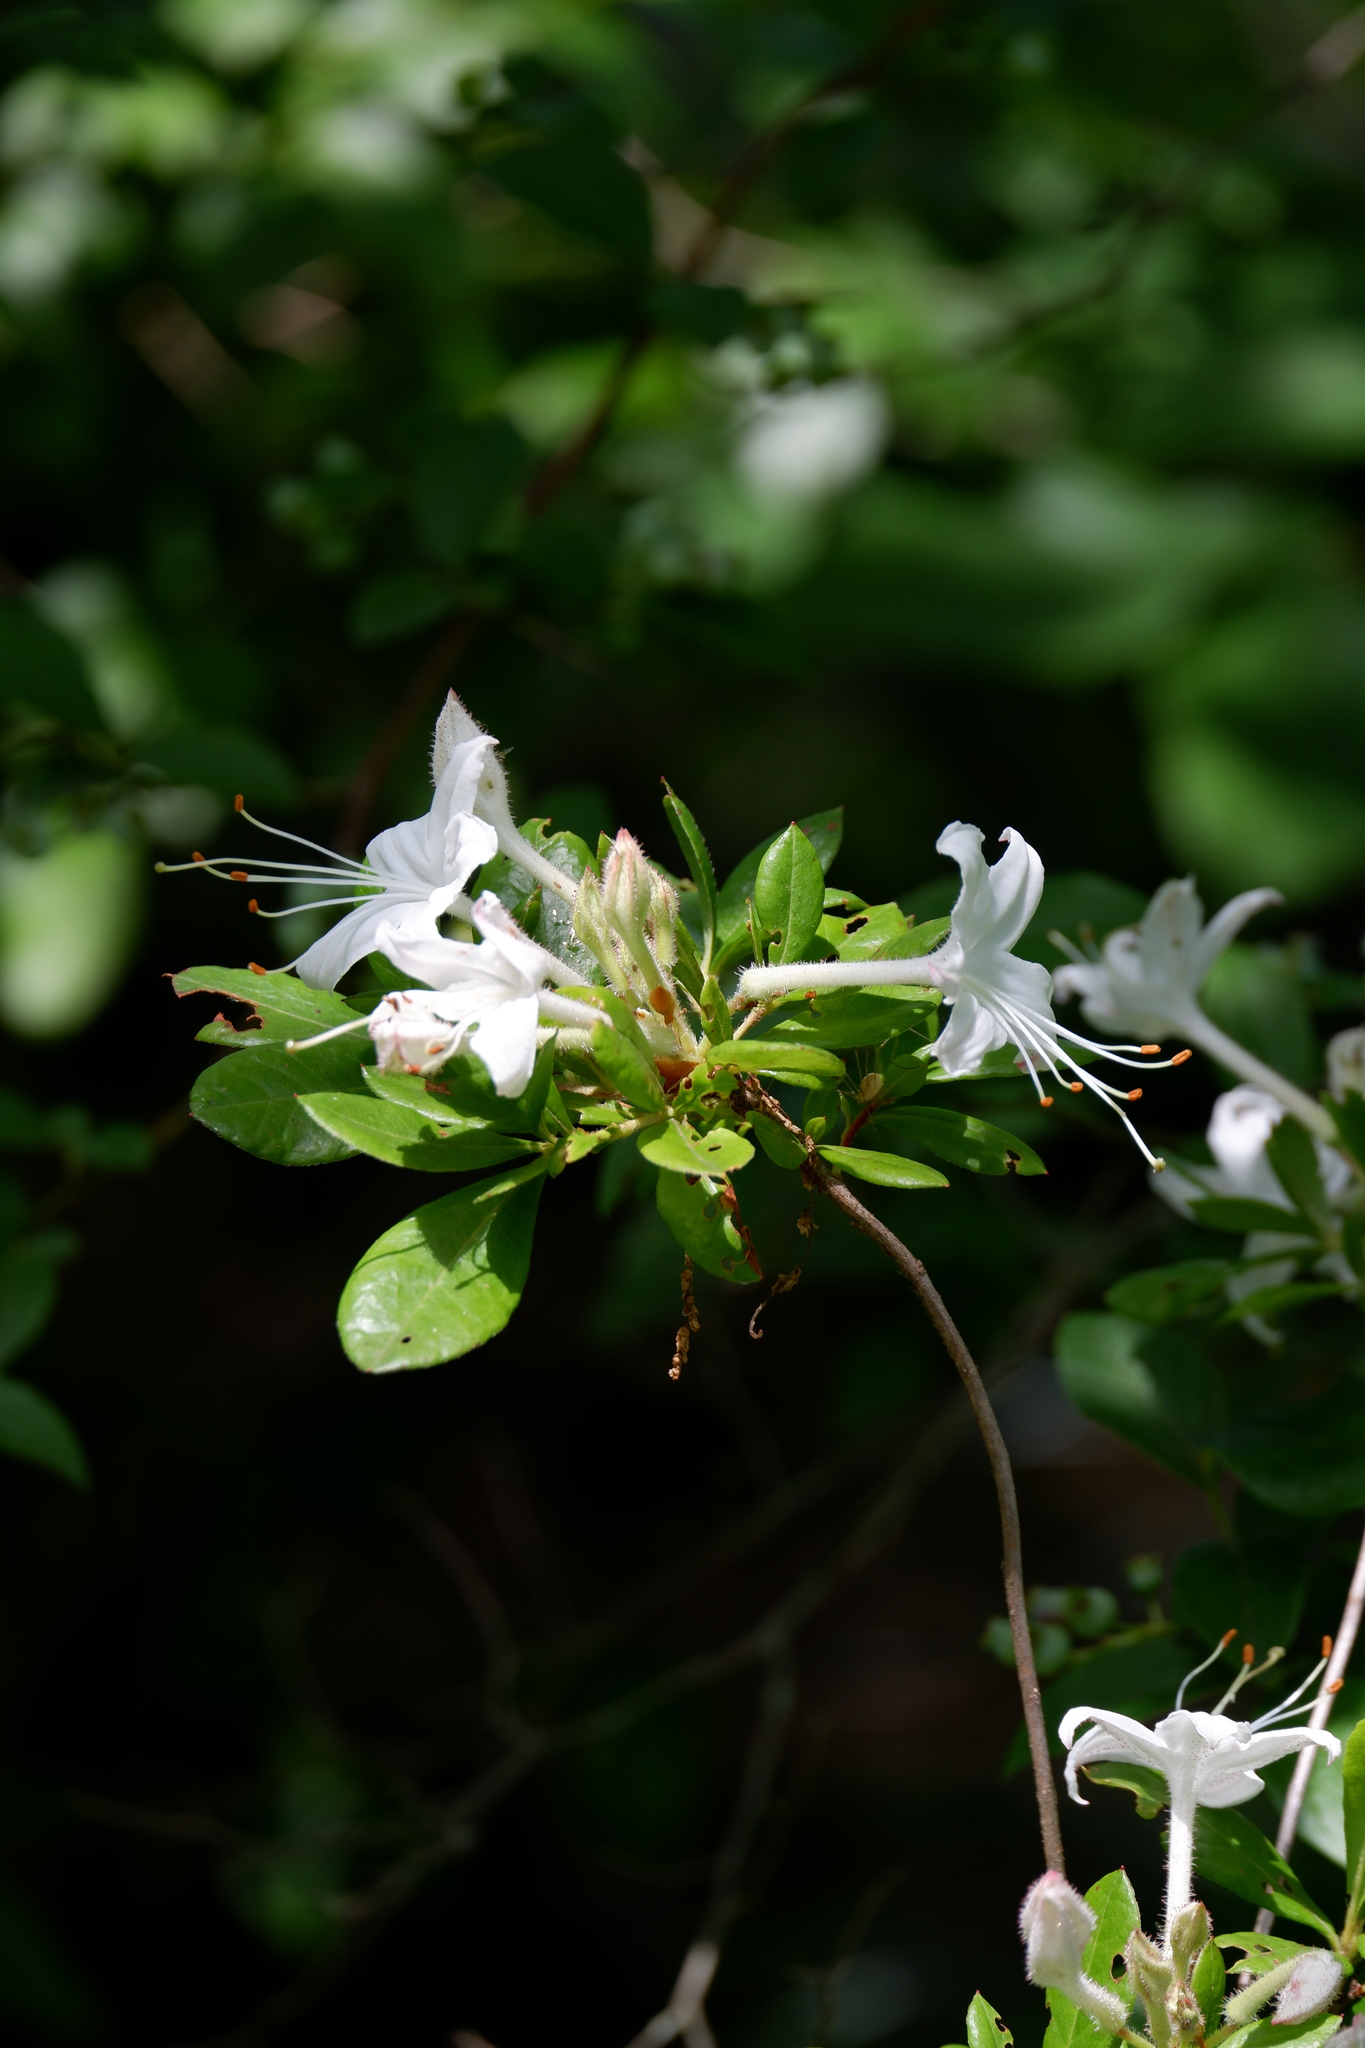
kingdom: Plantae
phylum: Tracheophyta
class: Magnoliopsida
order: Ericales
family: Ericaceae
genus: Rhododendron
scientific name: Rhododendron viscosum
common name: Clammy azalea
